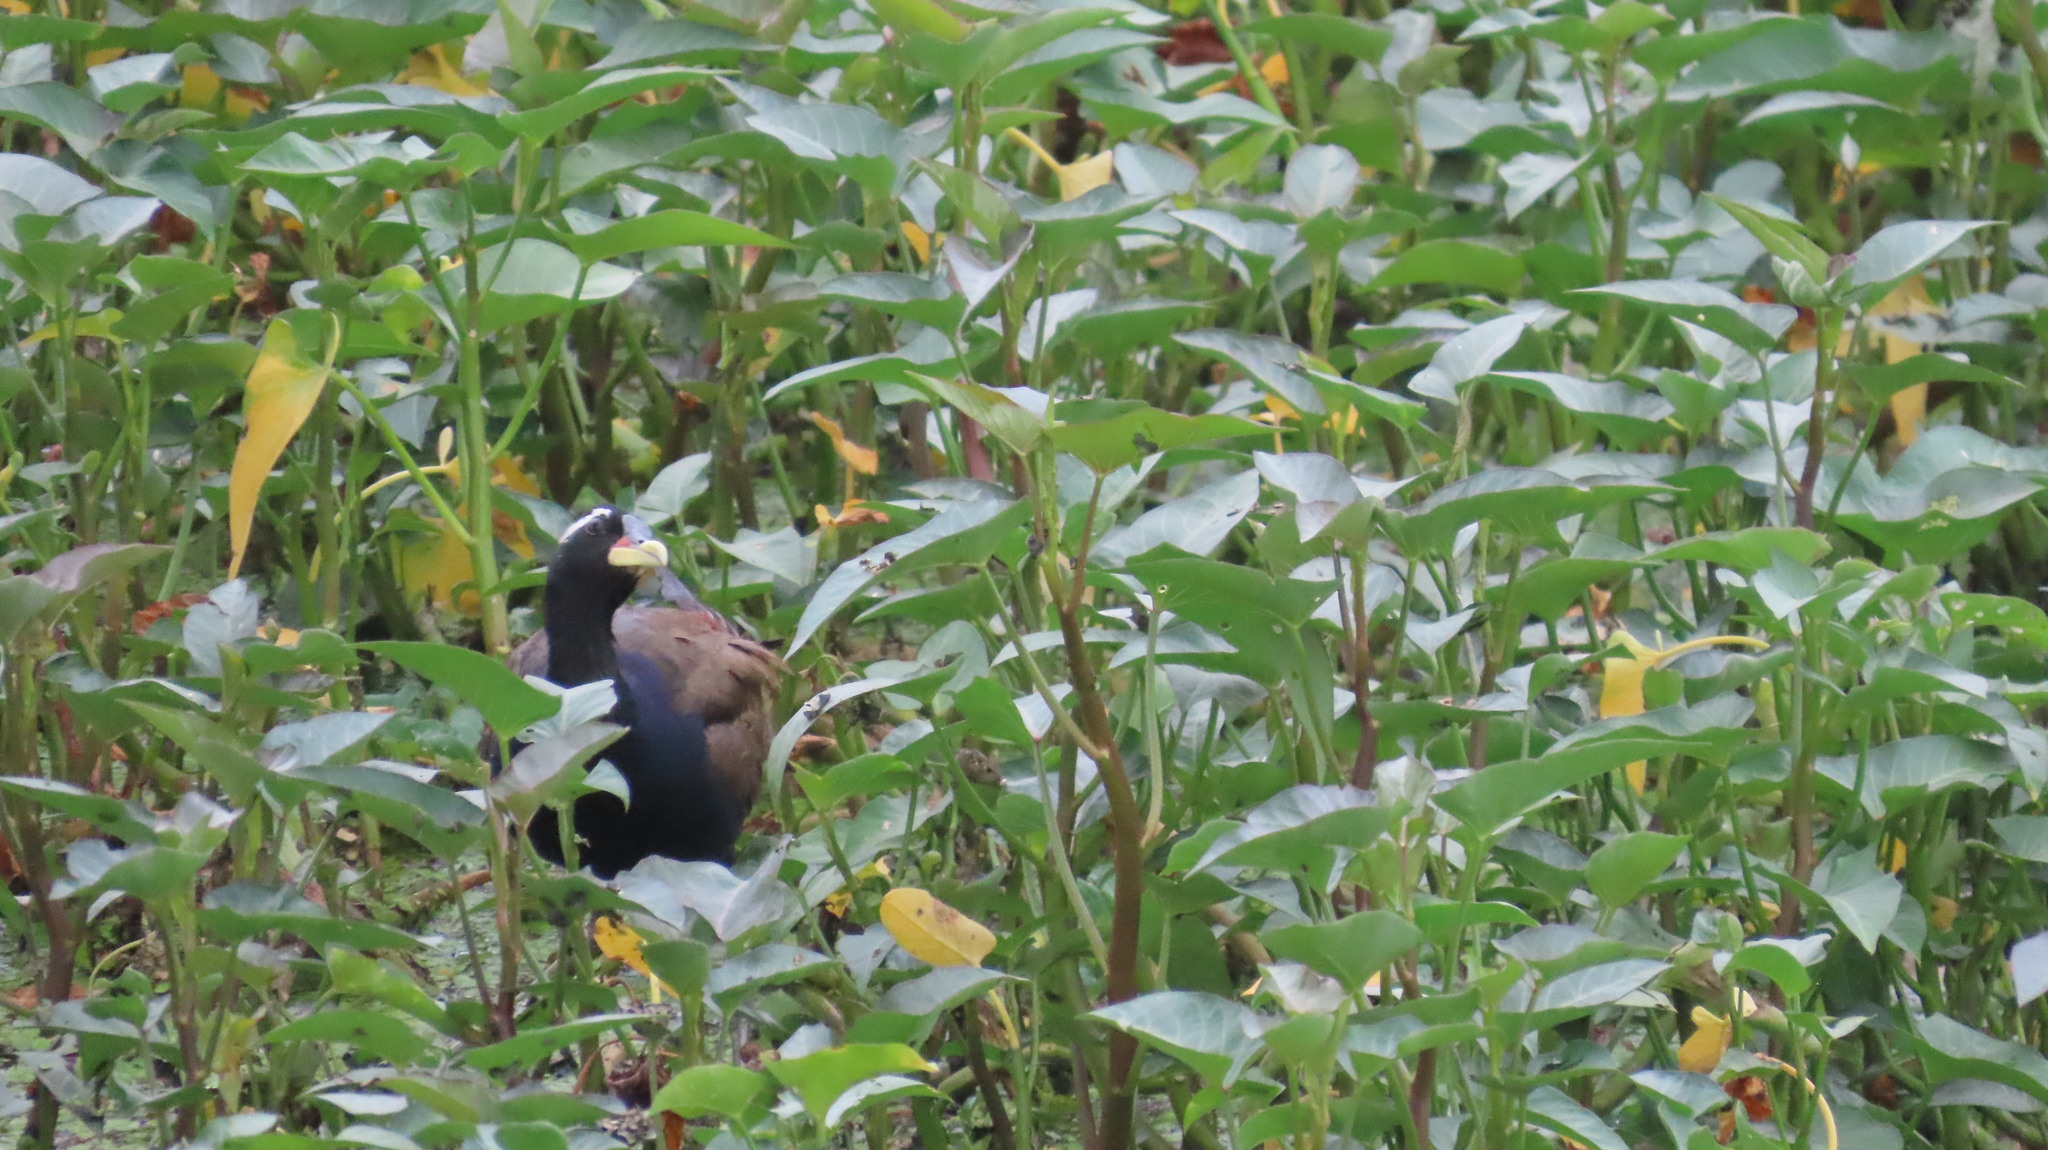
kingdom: Animalia
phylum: Chordata
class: Aves
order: Charadriiformes
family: Jacanidae
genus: Metopidius
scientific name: Metopidius indicus
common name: Bronze-winged jacana
